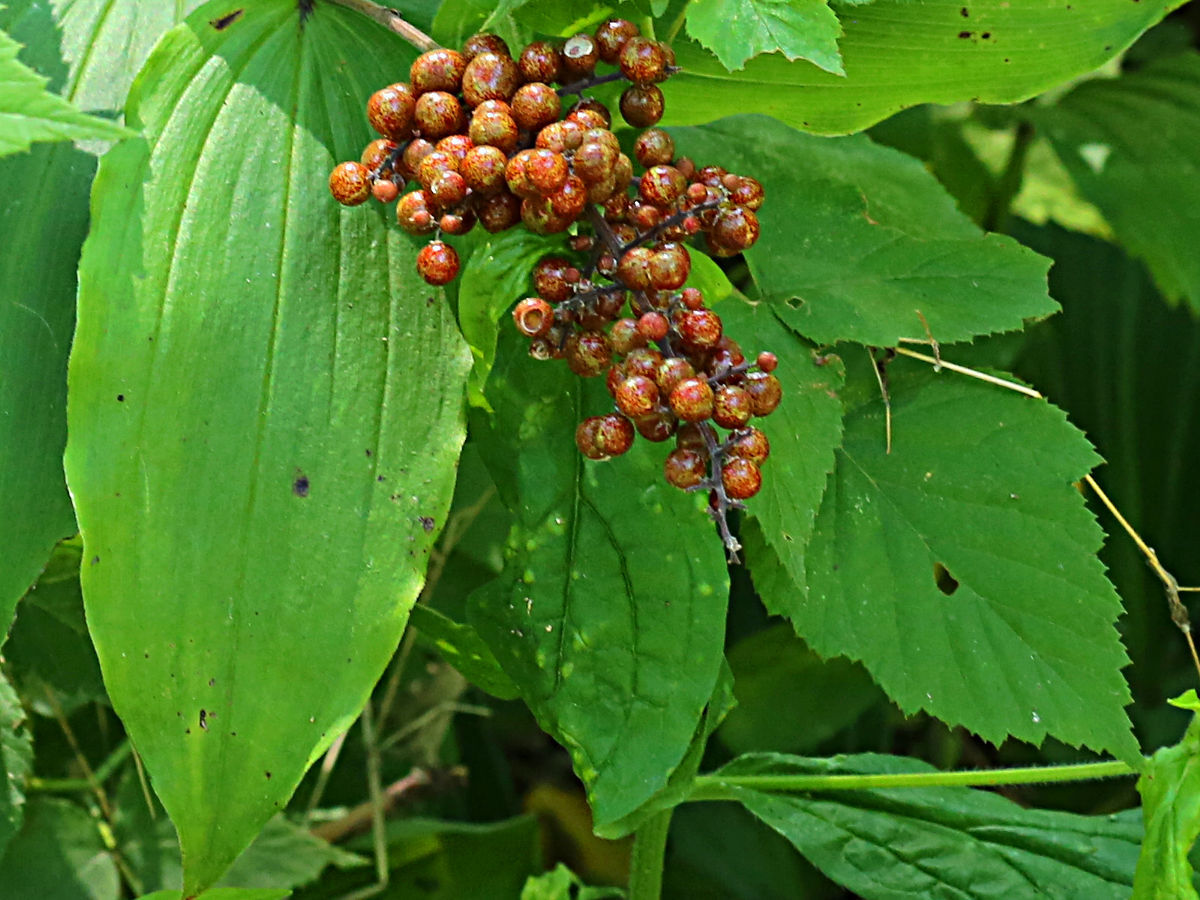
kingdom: Plantae
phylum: Tracheophyta
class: Liliopsida
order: Asparagales
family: Asparagaceae
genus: Maianthemum
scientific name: Maianthemum racemosum
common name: False spikenard
